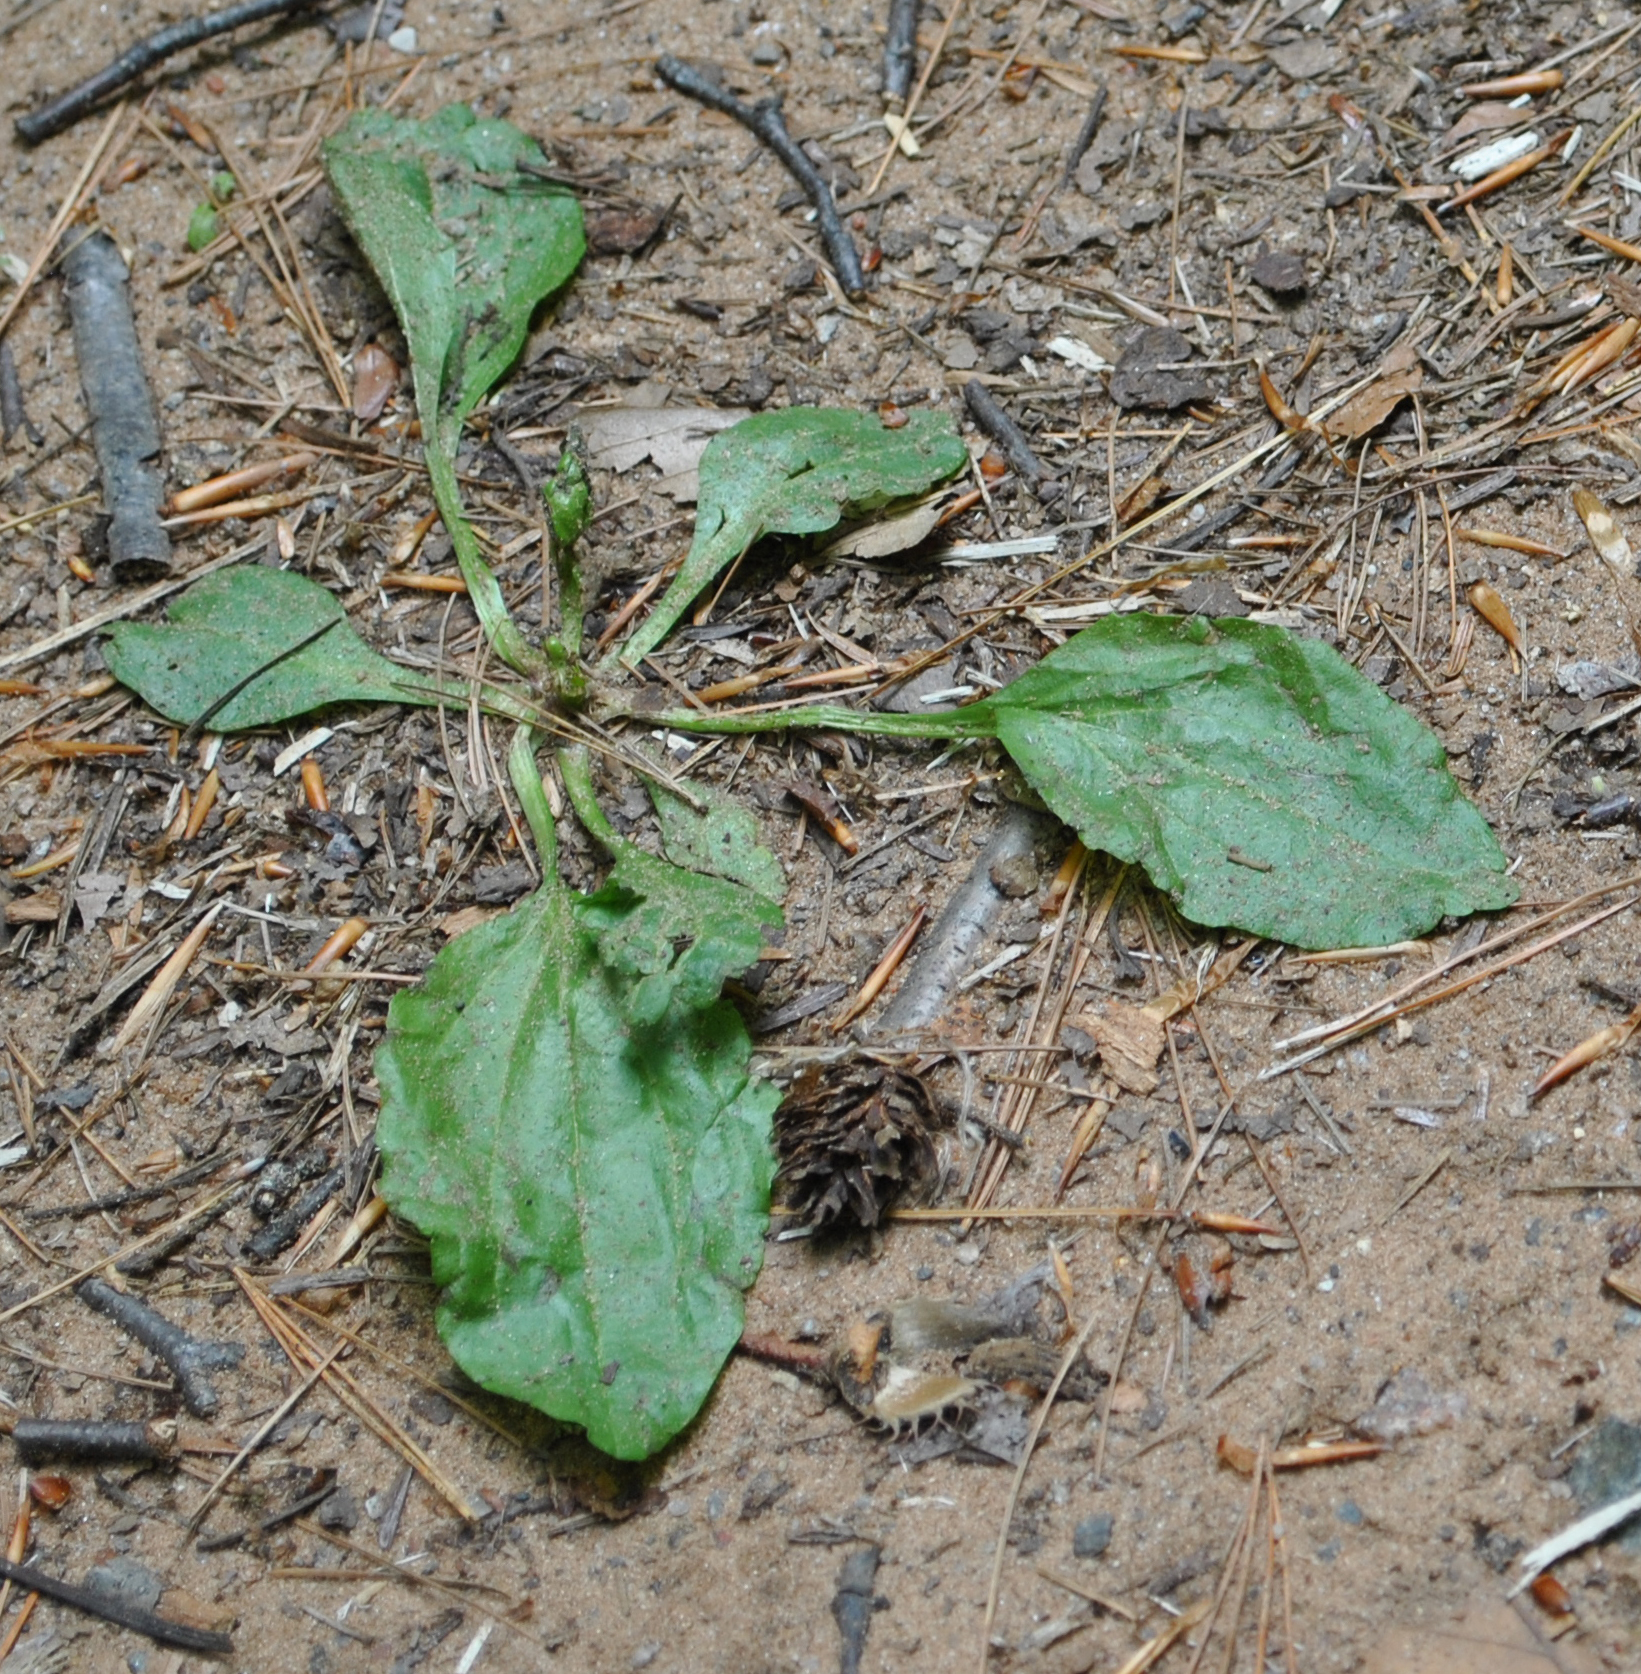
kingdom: Plantae
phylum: Tracheophyta
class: Magnoliopsida
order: Lamiales
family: Plantaginaceae
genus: Plantago
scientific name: Plantago major
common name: Common plantain
